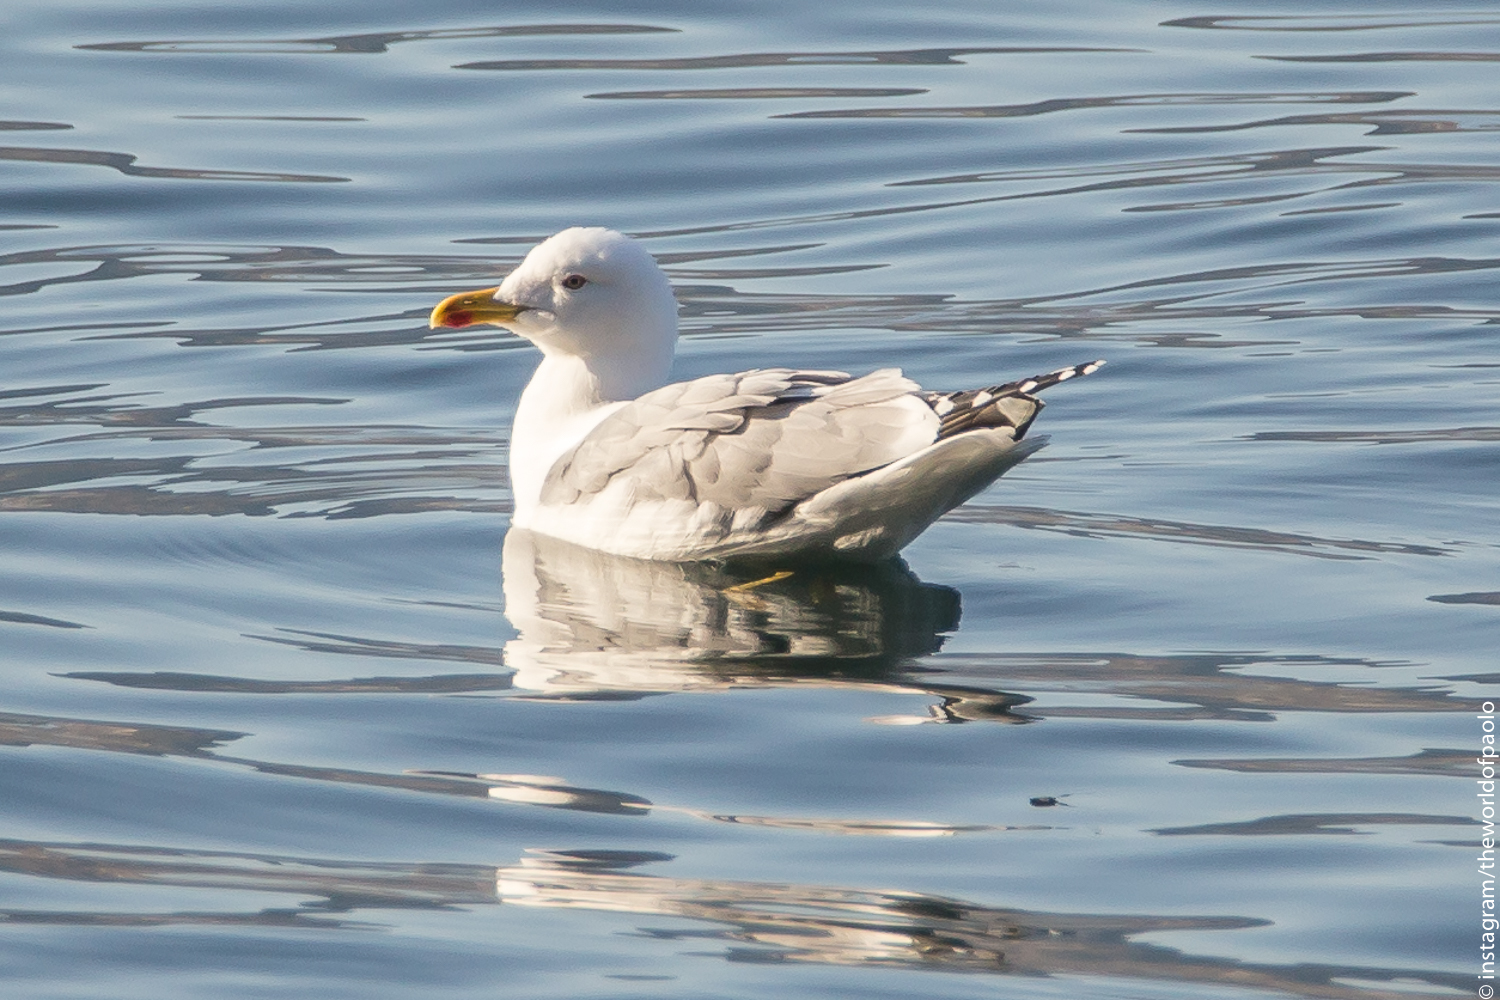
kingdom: Animalia
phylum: Chordata
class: Aves
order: Charadriiformes
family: Laridae
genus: Larus
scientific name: Larus michahellis
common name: Yellow-legged gull
